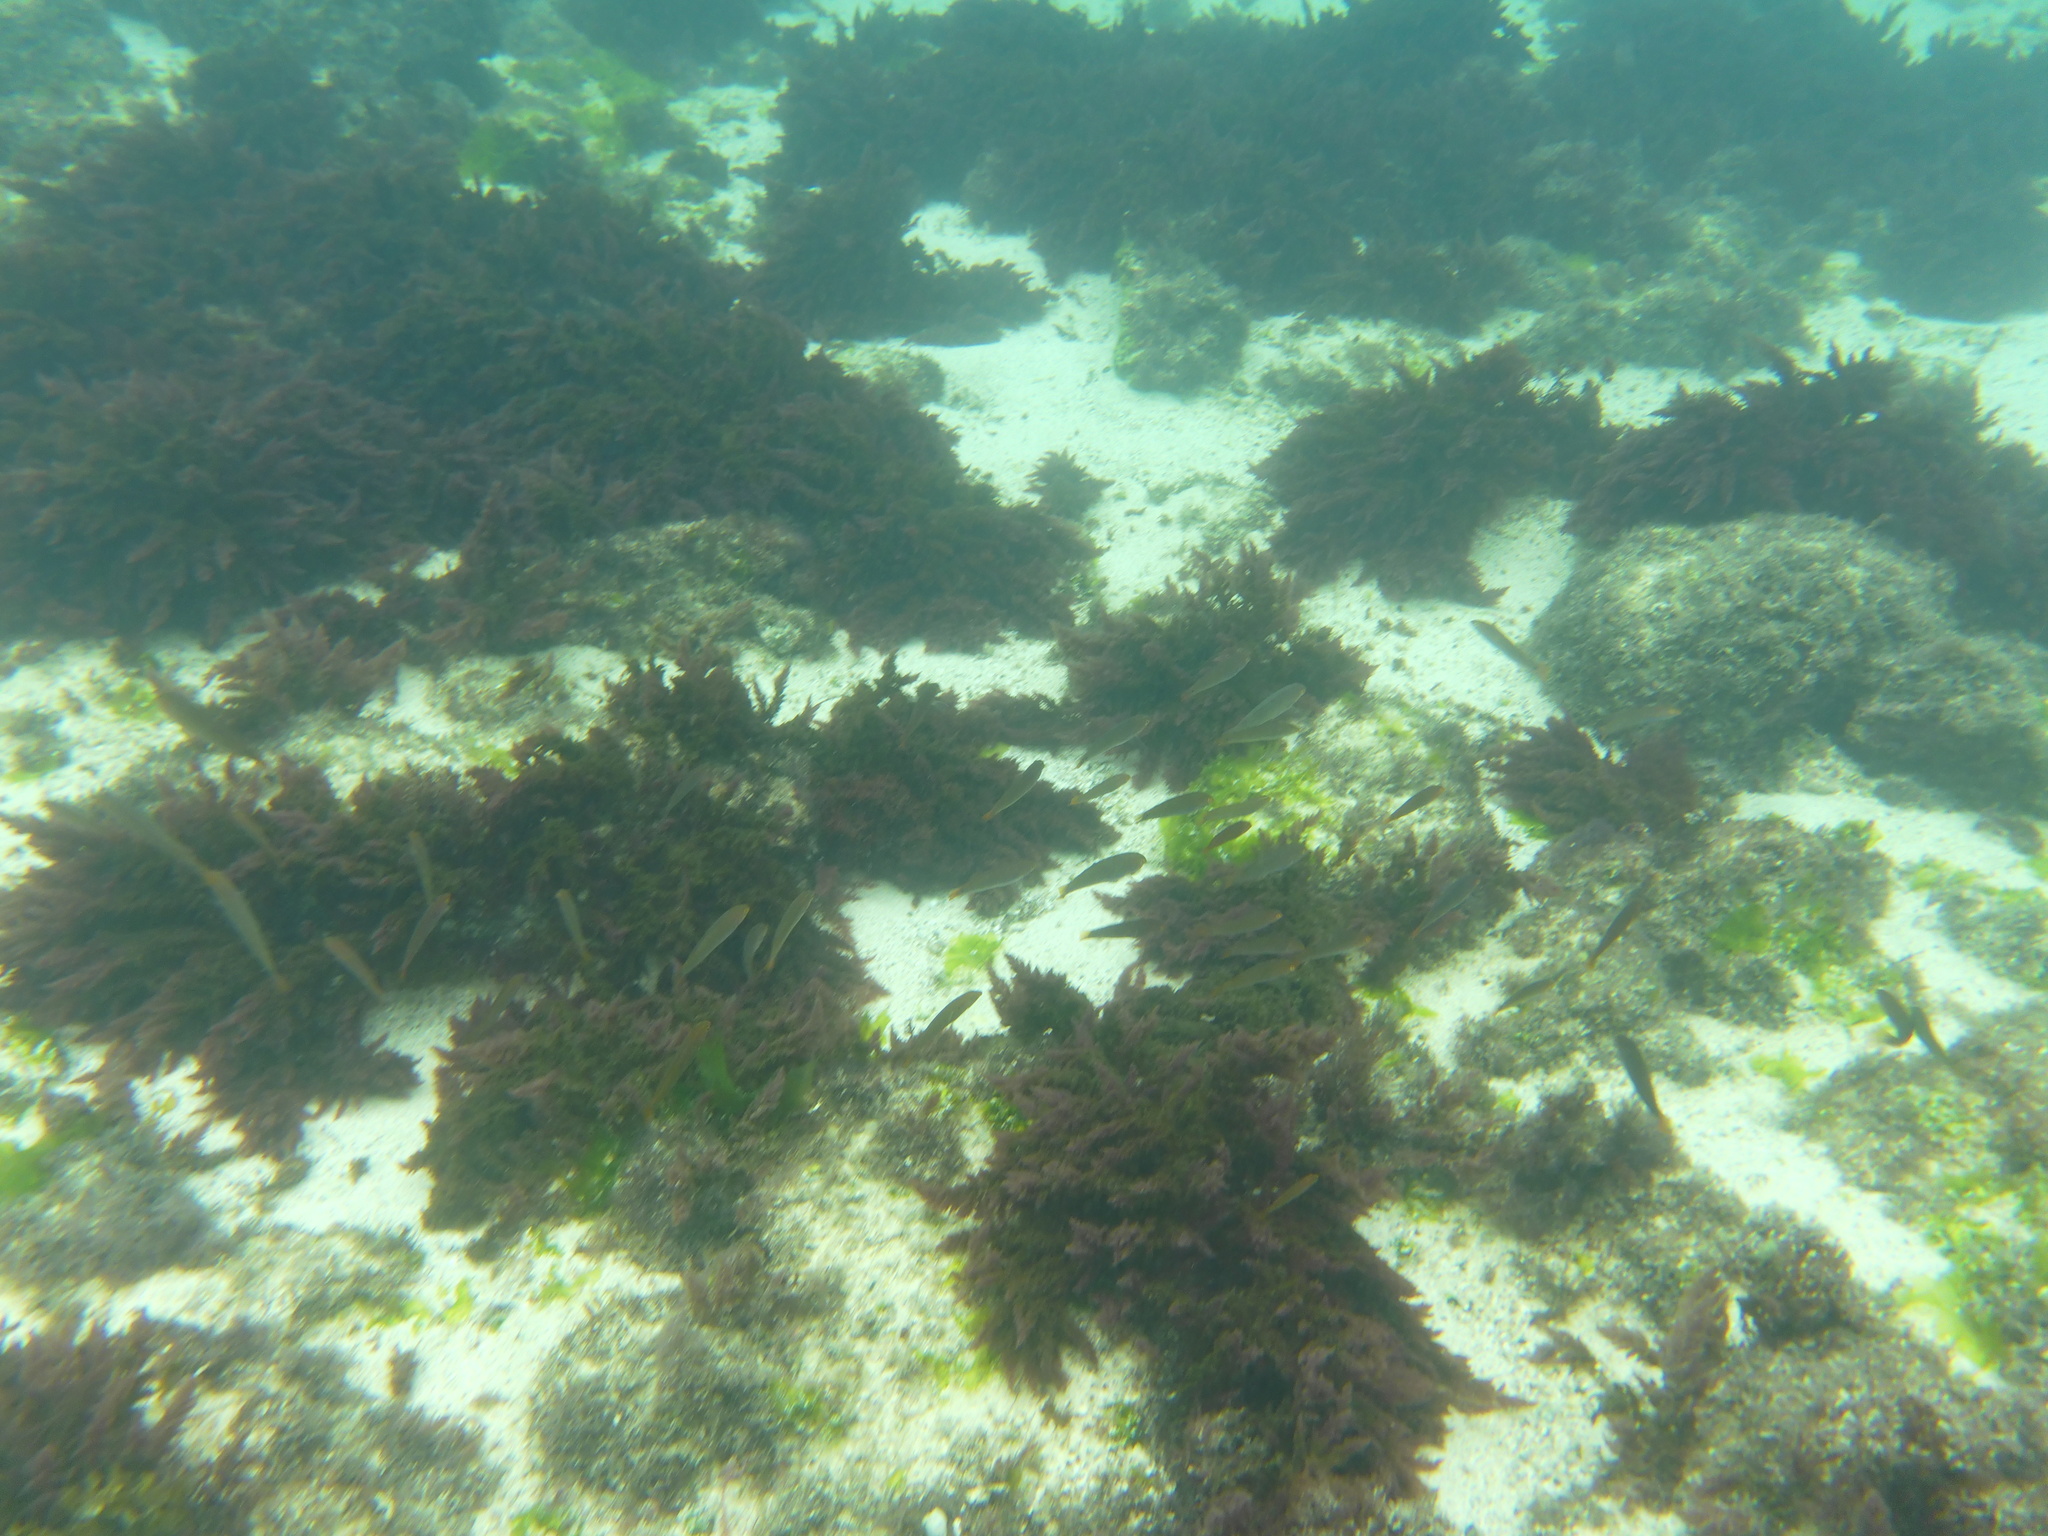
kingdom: Animalia
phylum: Chordata
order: Perciformes
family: Apogonidae
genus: Apogon
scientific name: Apogon atradorsatus
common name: Blacktip cardinalfish
